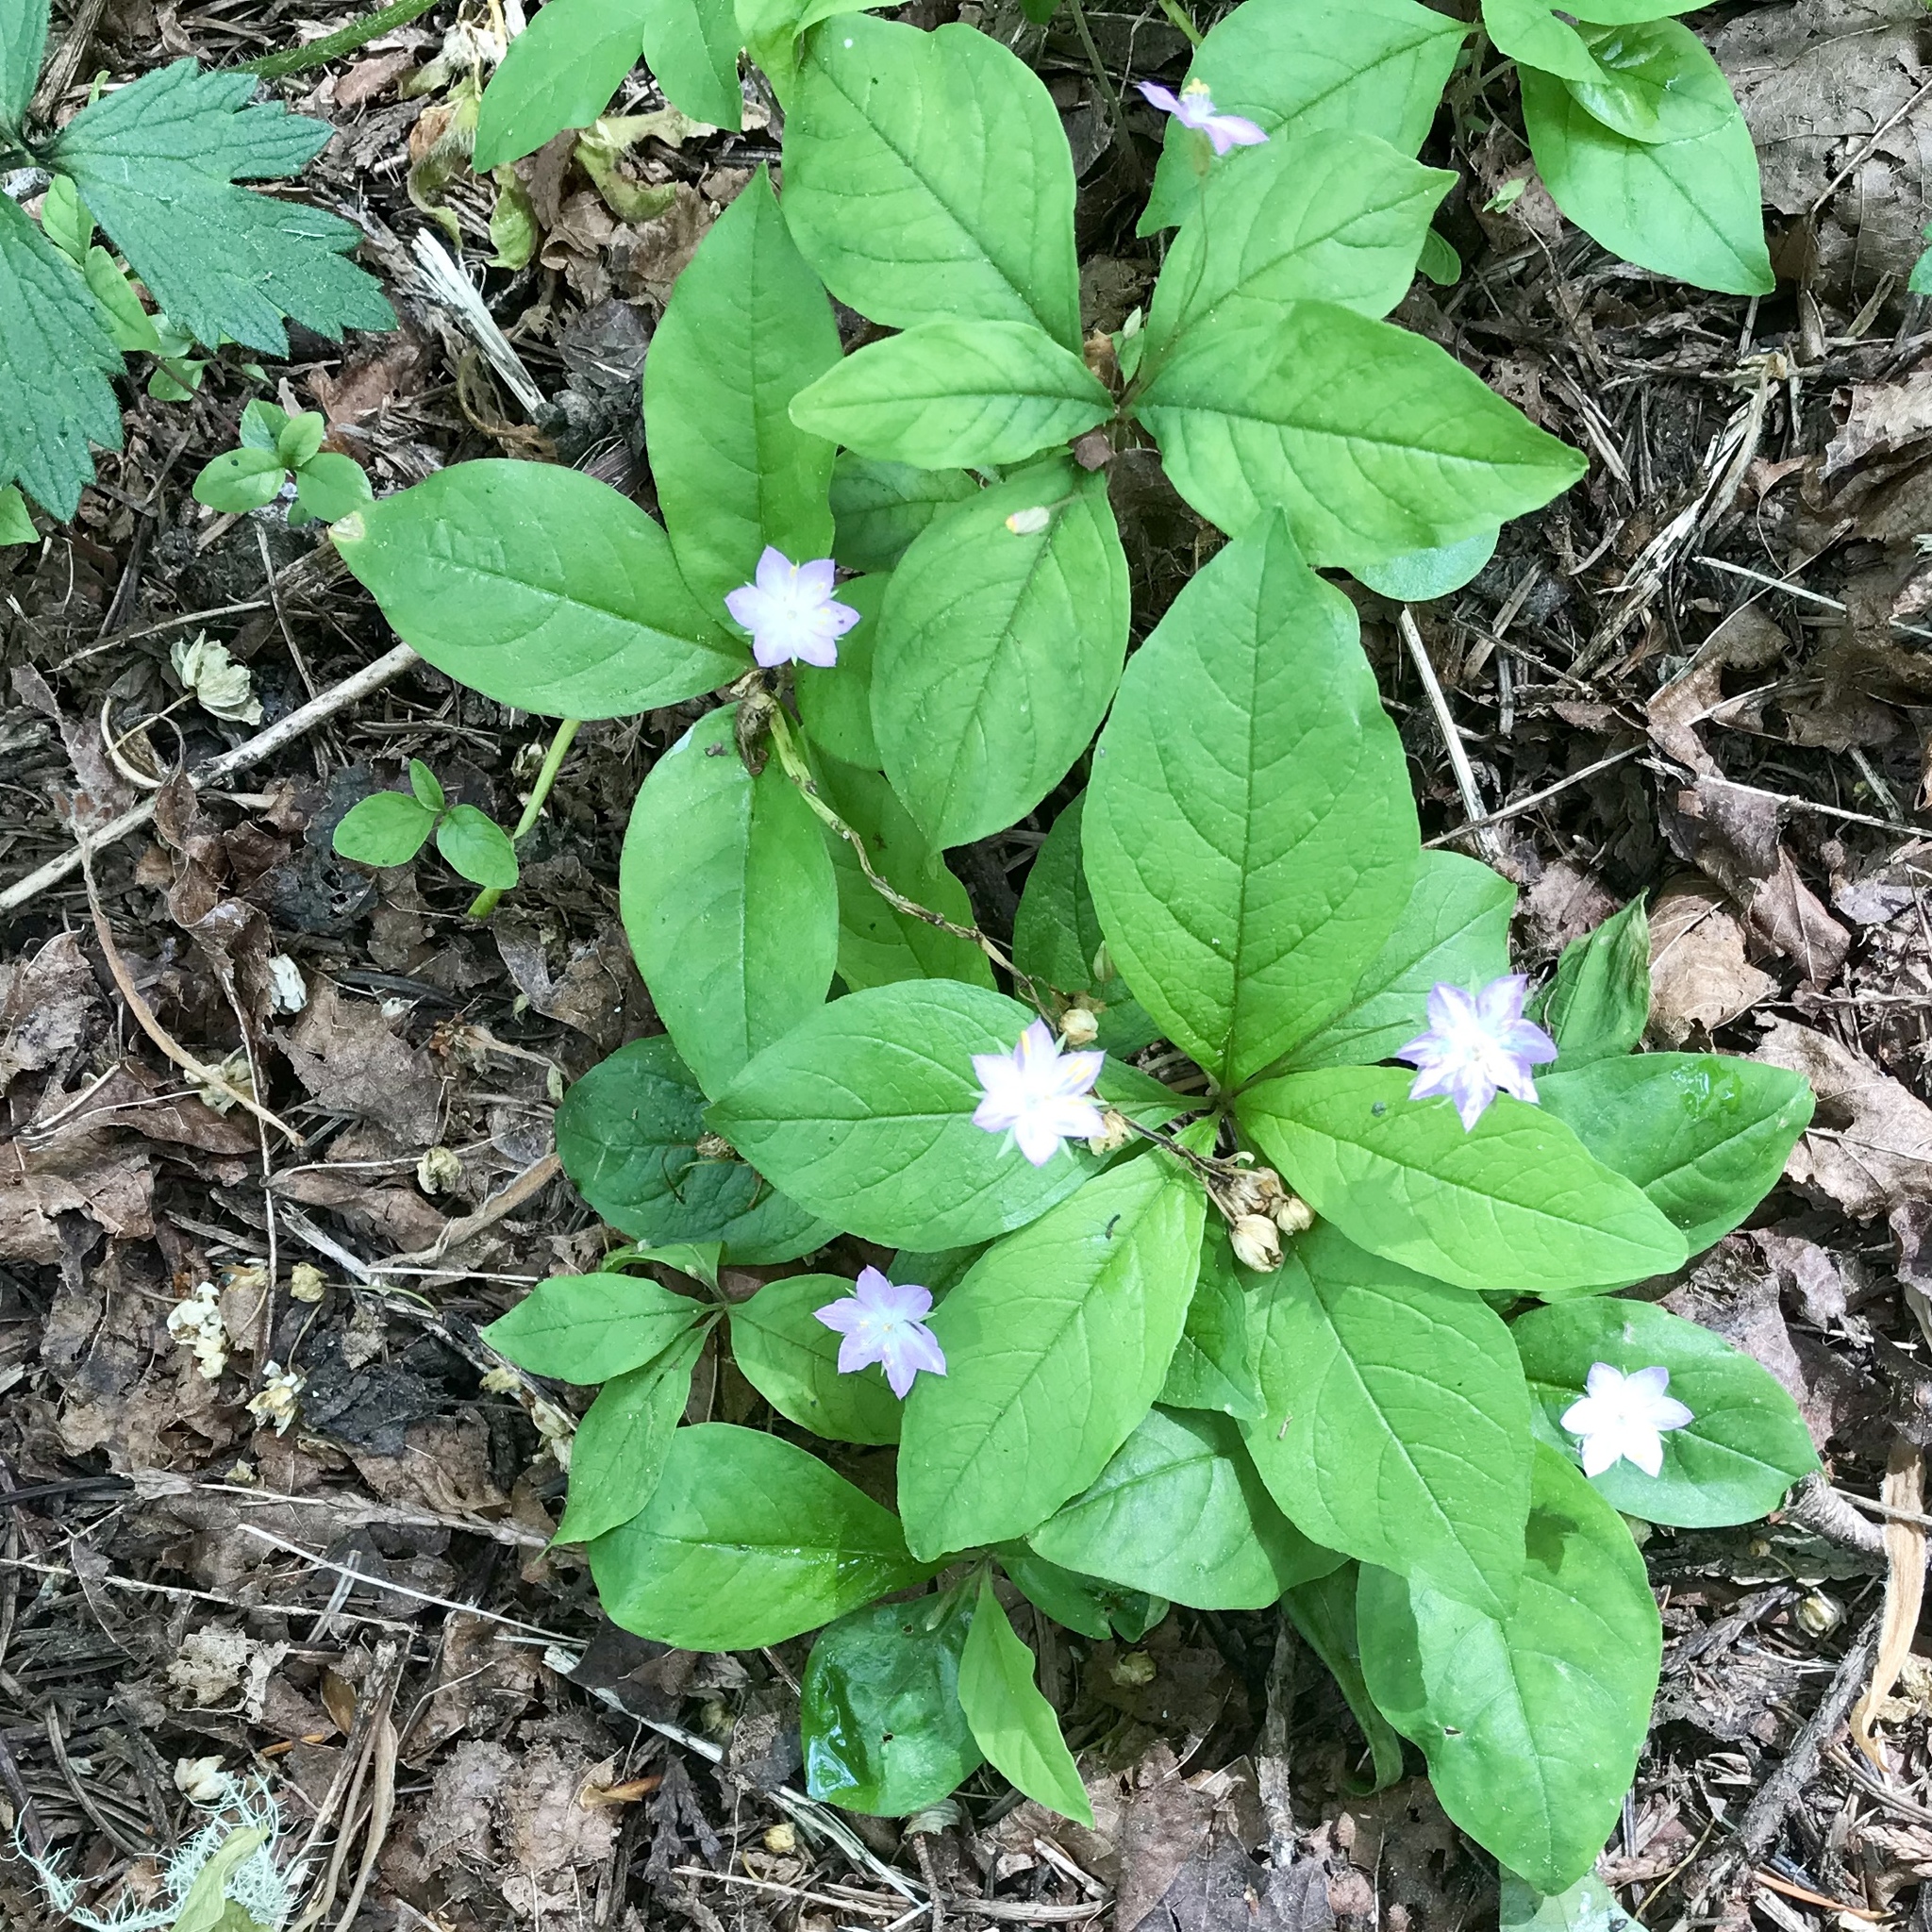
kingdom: Plantae
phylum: Tracheophyta
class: Magnoliopsida
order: Ericales
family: Primulaceae
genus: Lysimachia
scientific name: Lysimachia latifolia
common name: Pacific starflower
